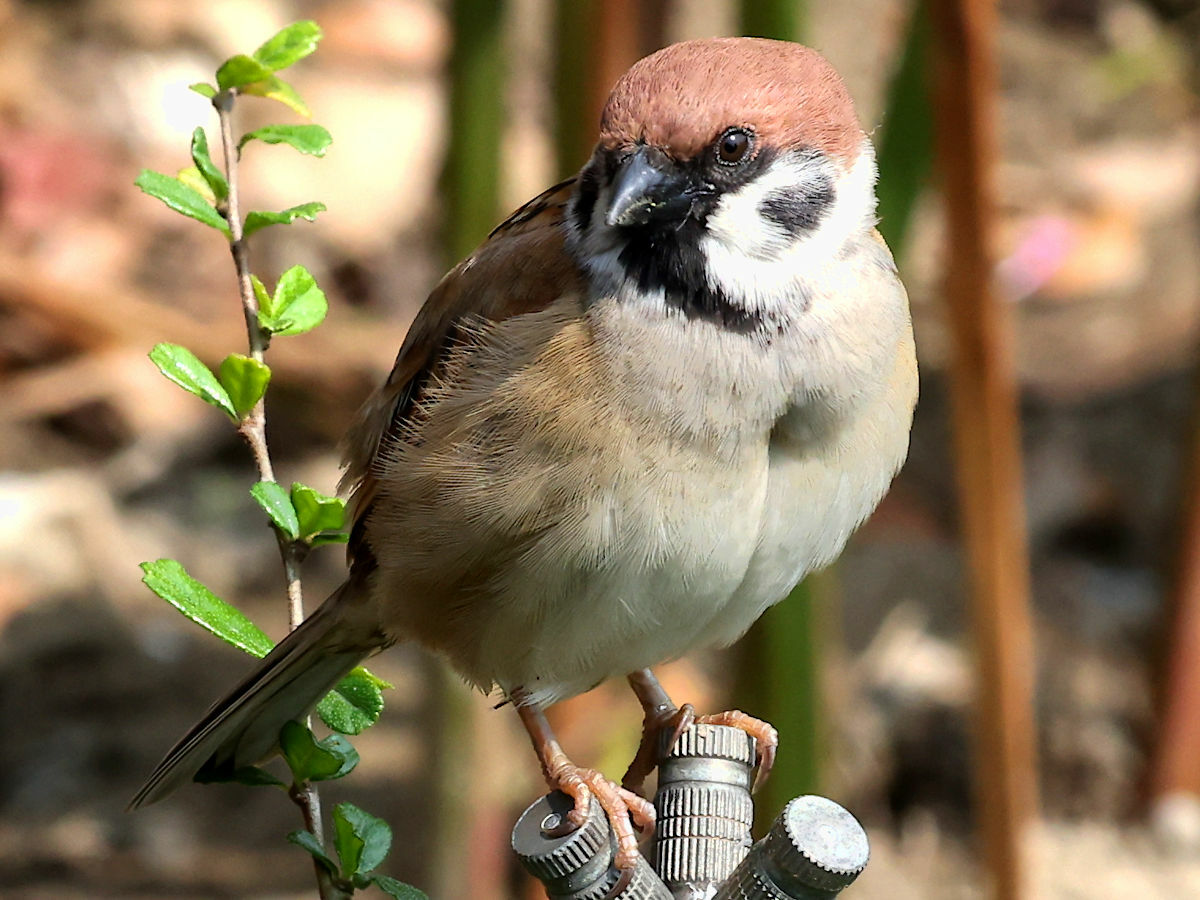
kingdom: Animalia
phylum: Chordata
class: Aves
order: Passeriformes
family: Passeridae
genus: Passer
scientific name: Passer montanus
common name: Eurasian tree sparrow
